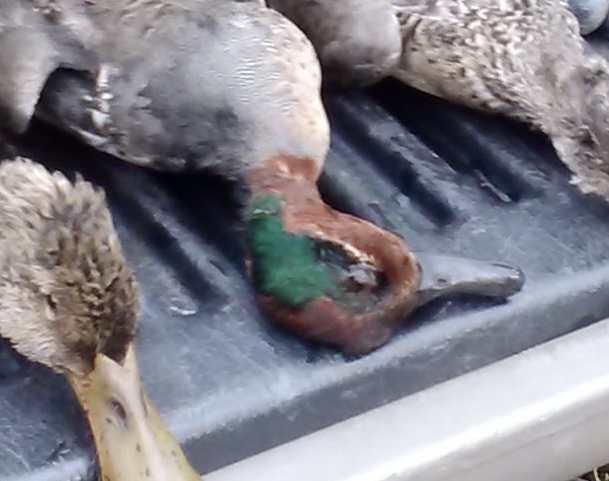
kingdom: Animalia
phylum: Chordata
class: Aves
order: Anseriformes
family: Anatidae
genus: Anas
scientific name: Anas crecca
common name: Eurasian teal
